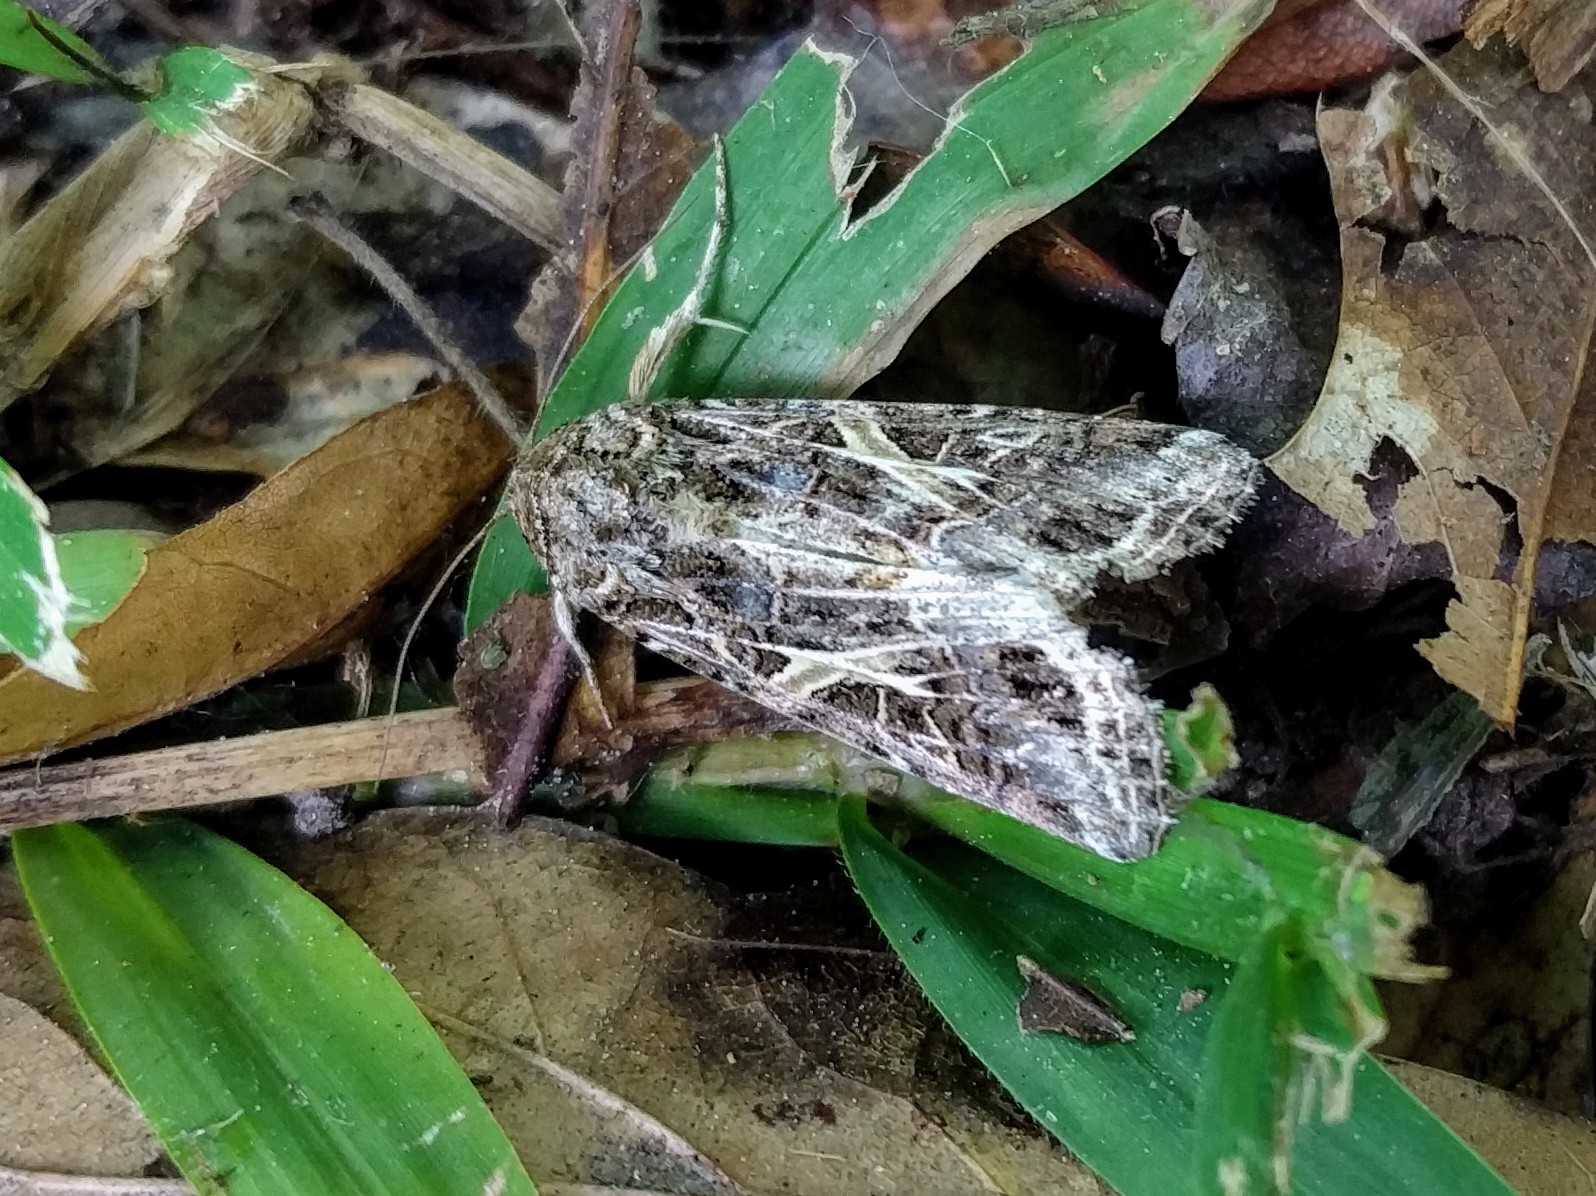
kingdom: Animalia
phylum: Arthropoda
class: Insecta
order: Lepidoptera
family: Noctuidae
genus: Spodoptera
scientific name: Spodoptera ornithogalli
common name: Yellow-striped armyworm
